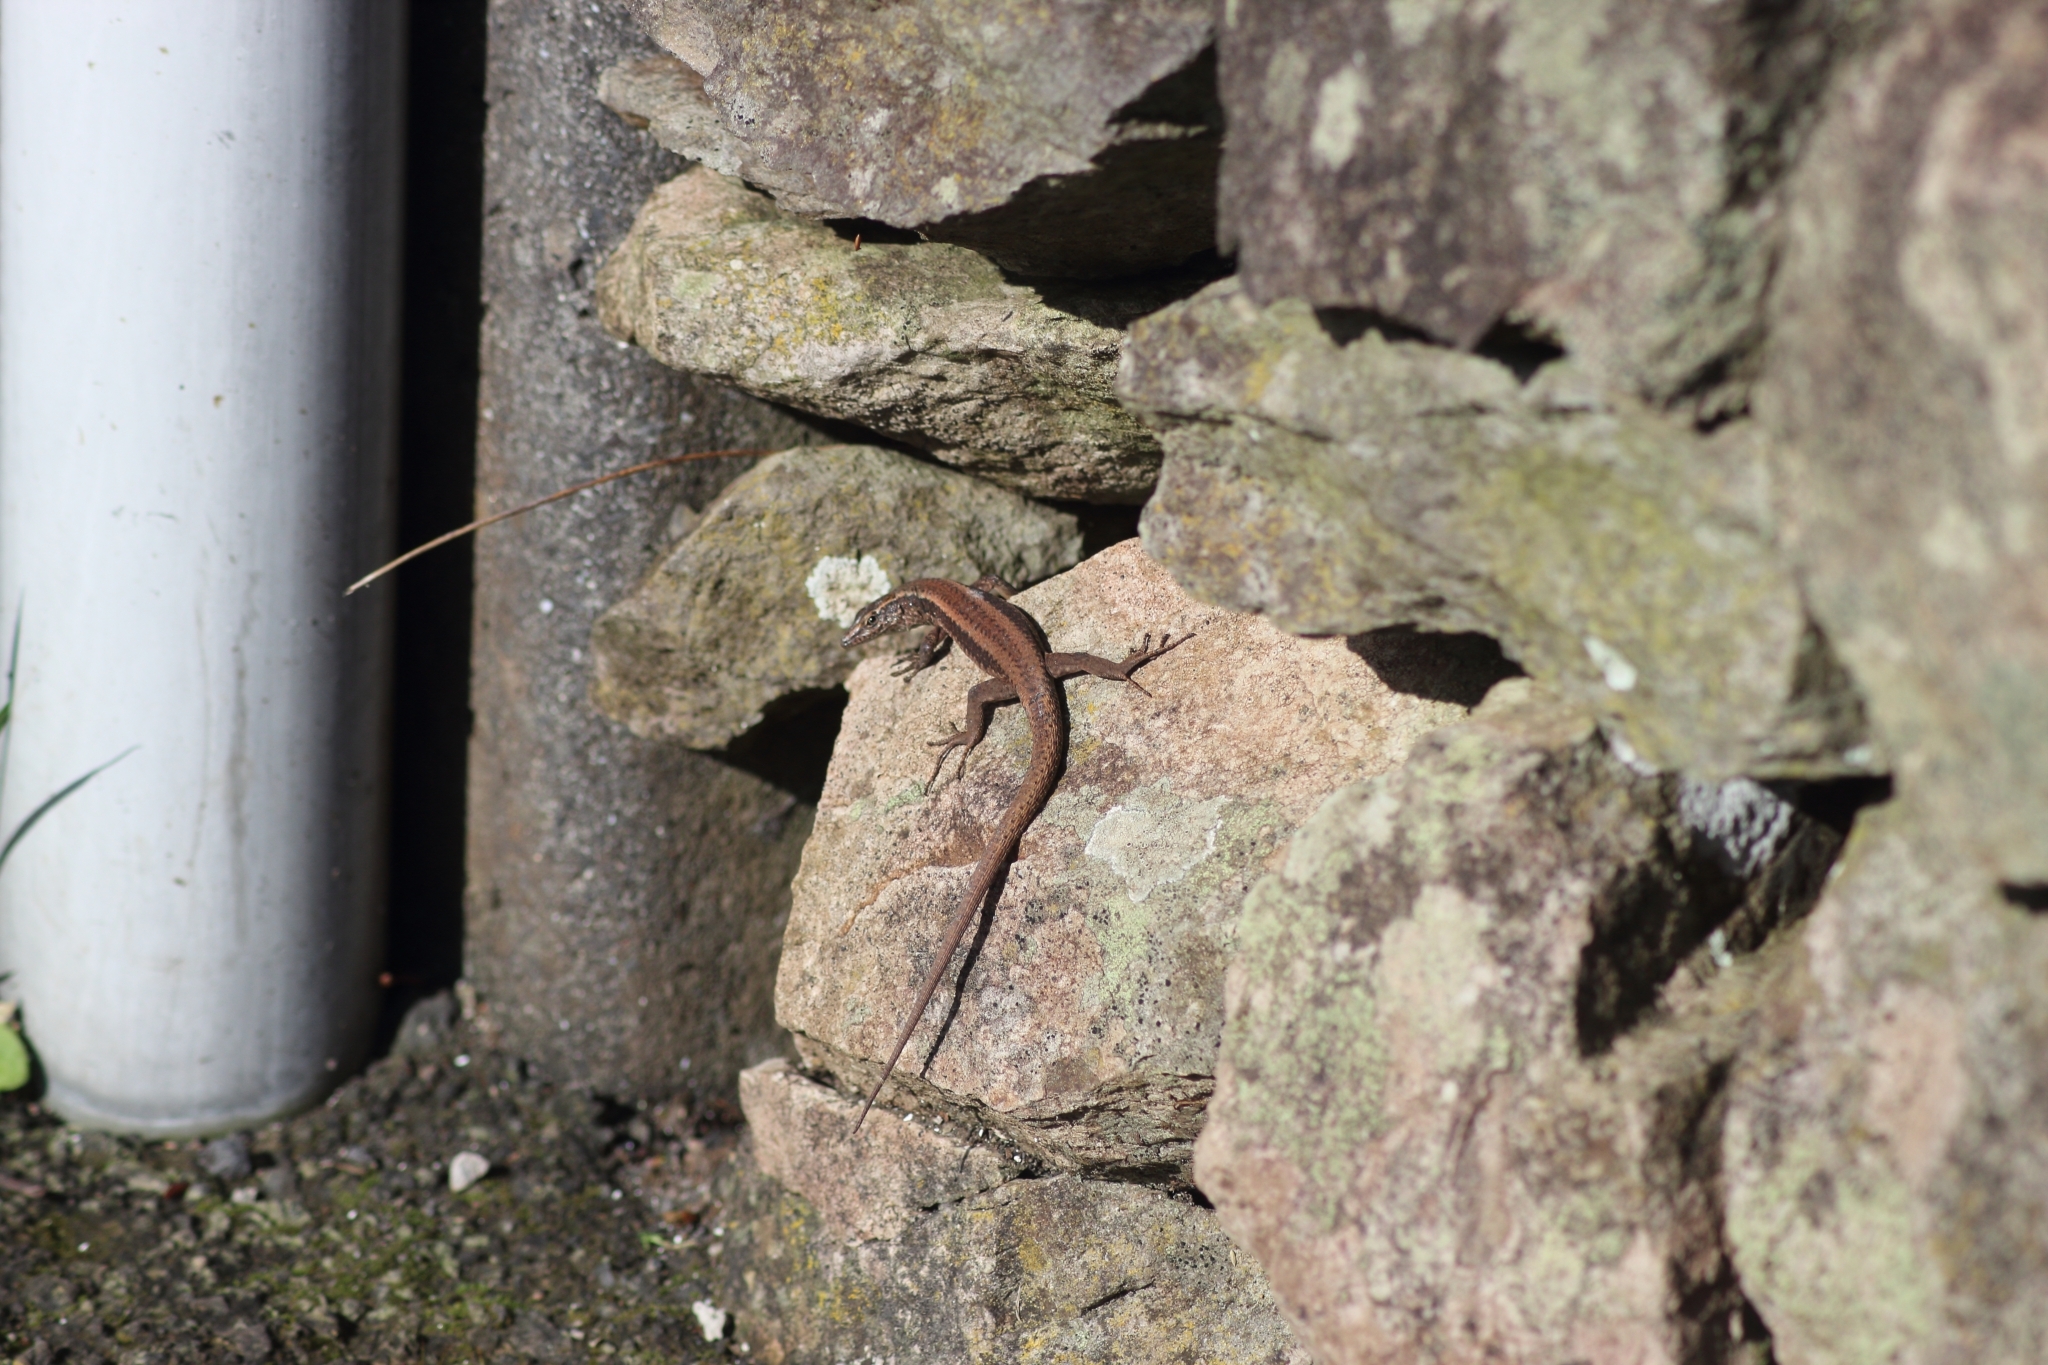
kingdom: Animalia
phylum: Chordata
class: Squamata
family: Lacertidae
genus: Teira
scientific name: Teira dugesii
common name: Madeira lizard
